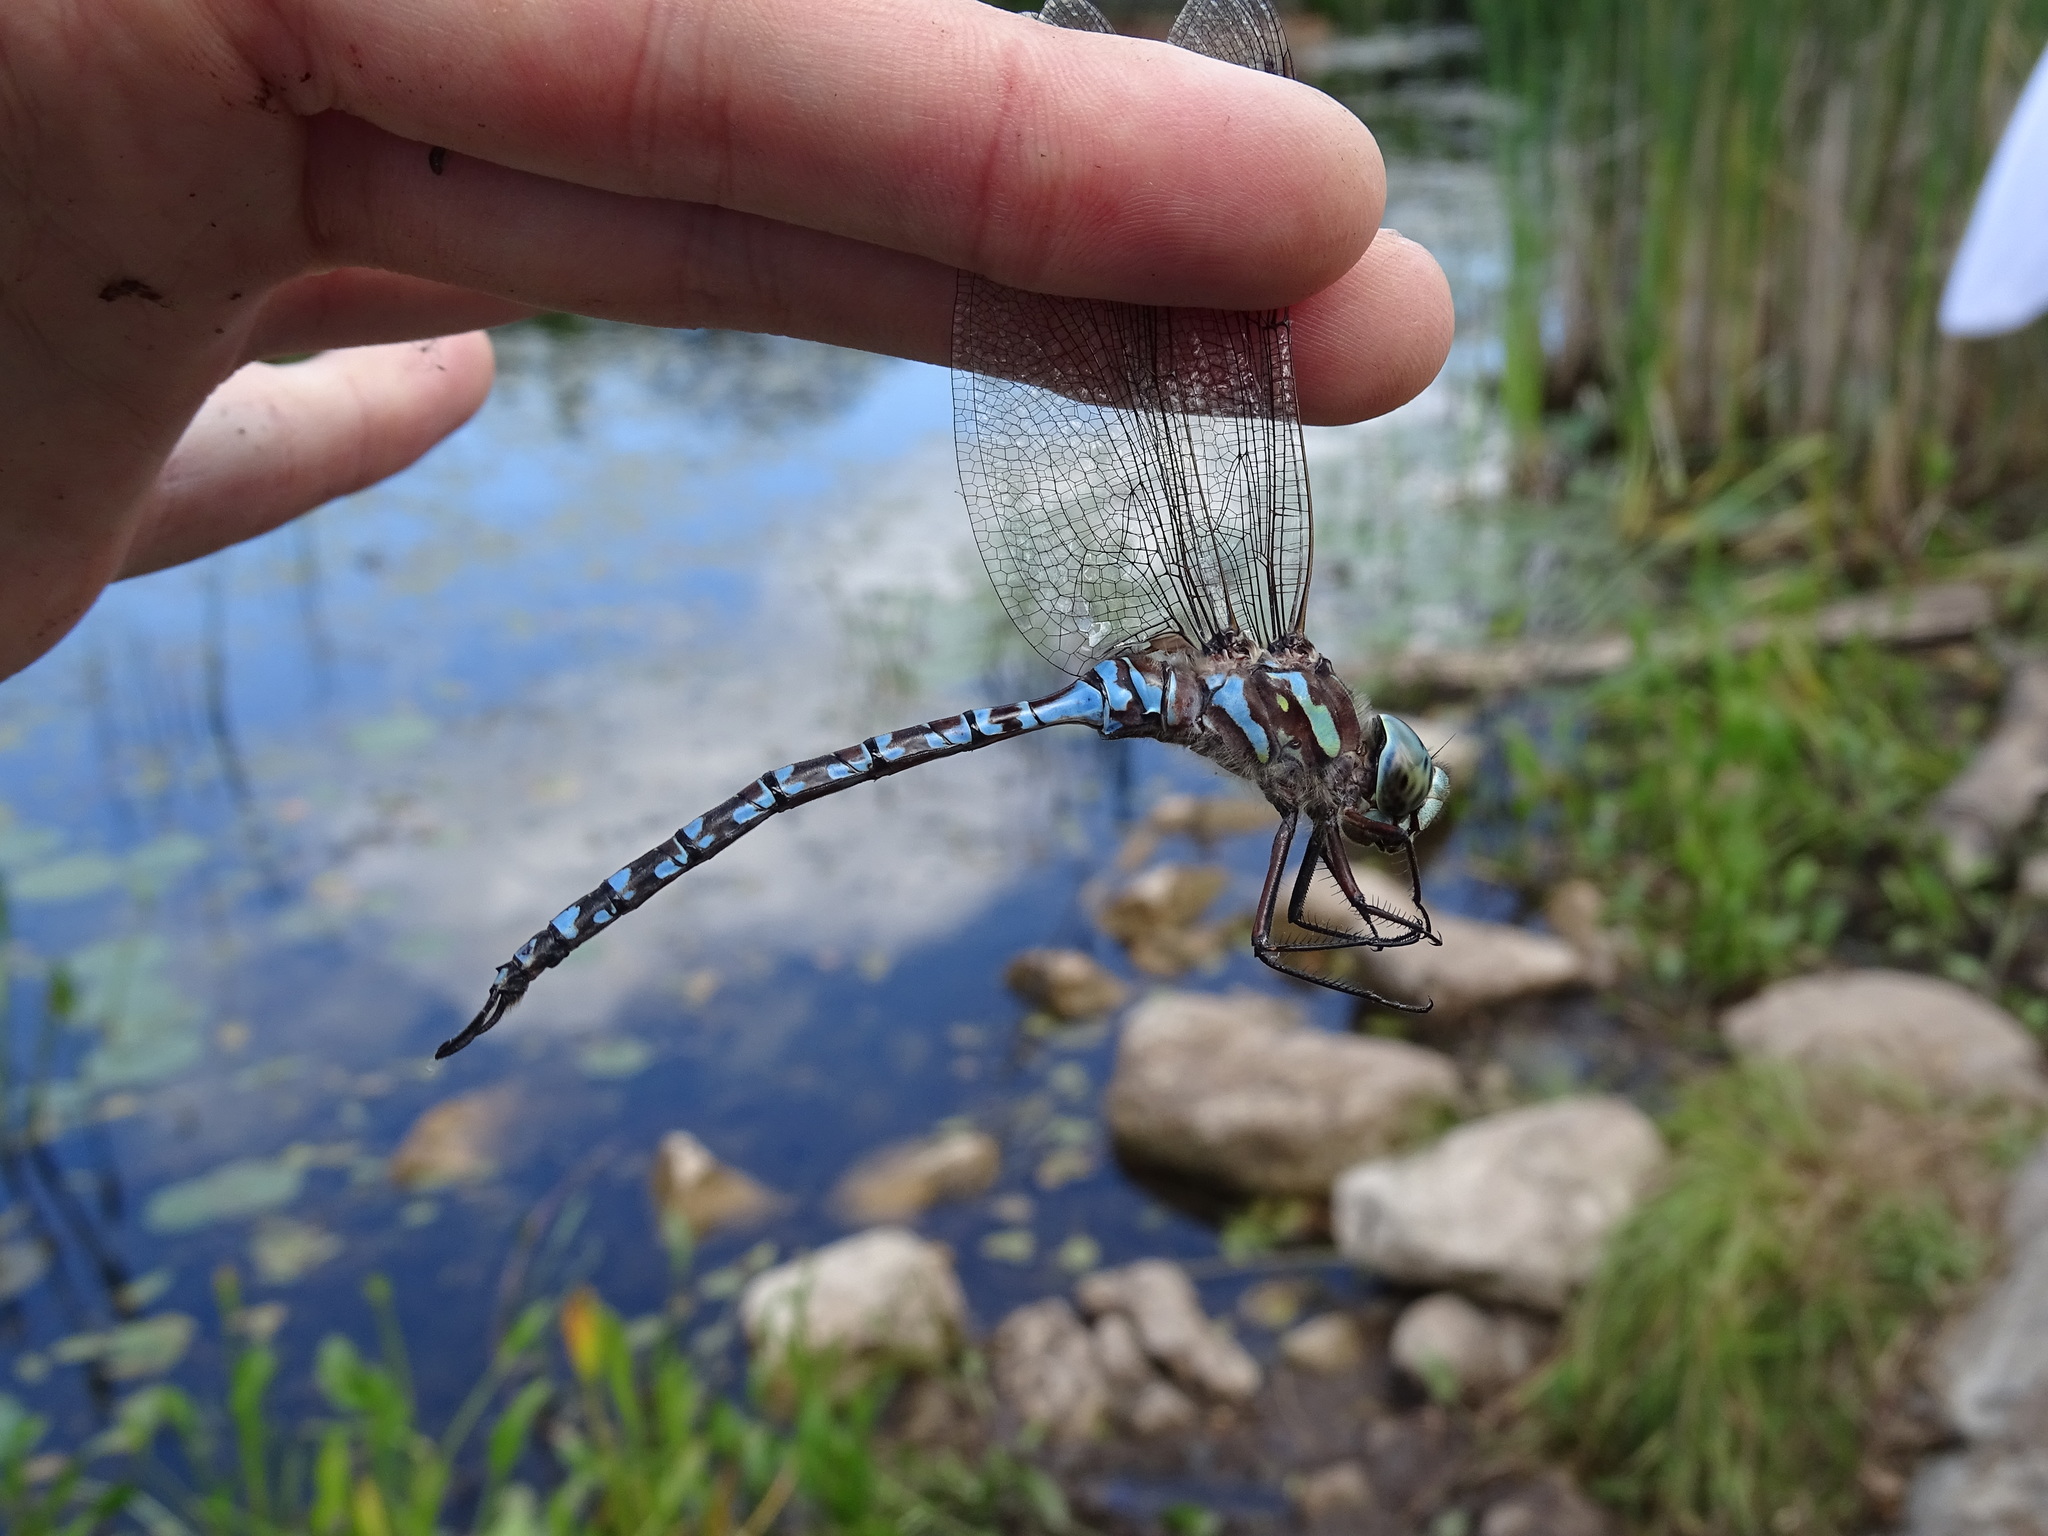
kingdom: Animalia
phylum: Arthropoda
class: Insecta
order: Odonata
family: Aeshnidae
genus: Aeshna
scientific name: Aeshna canadensis
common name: Canada darner
